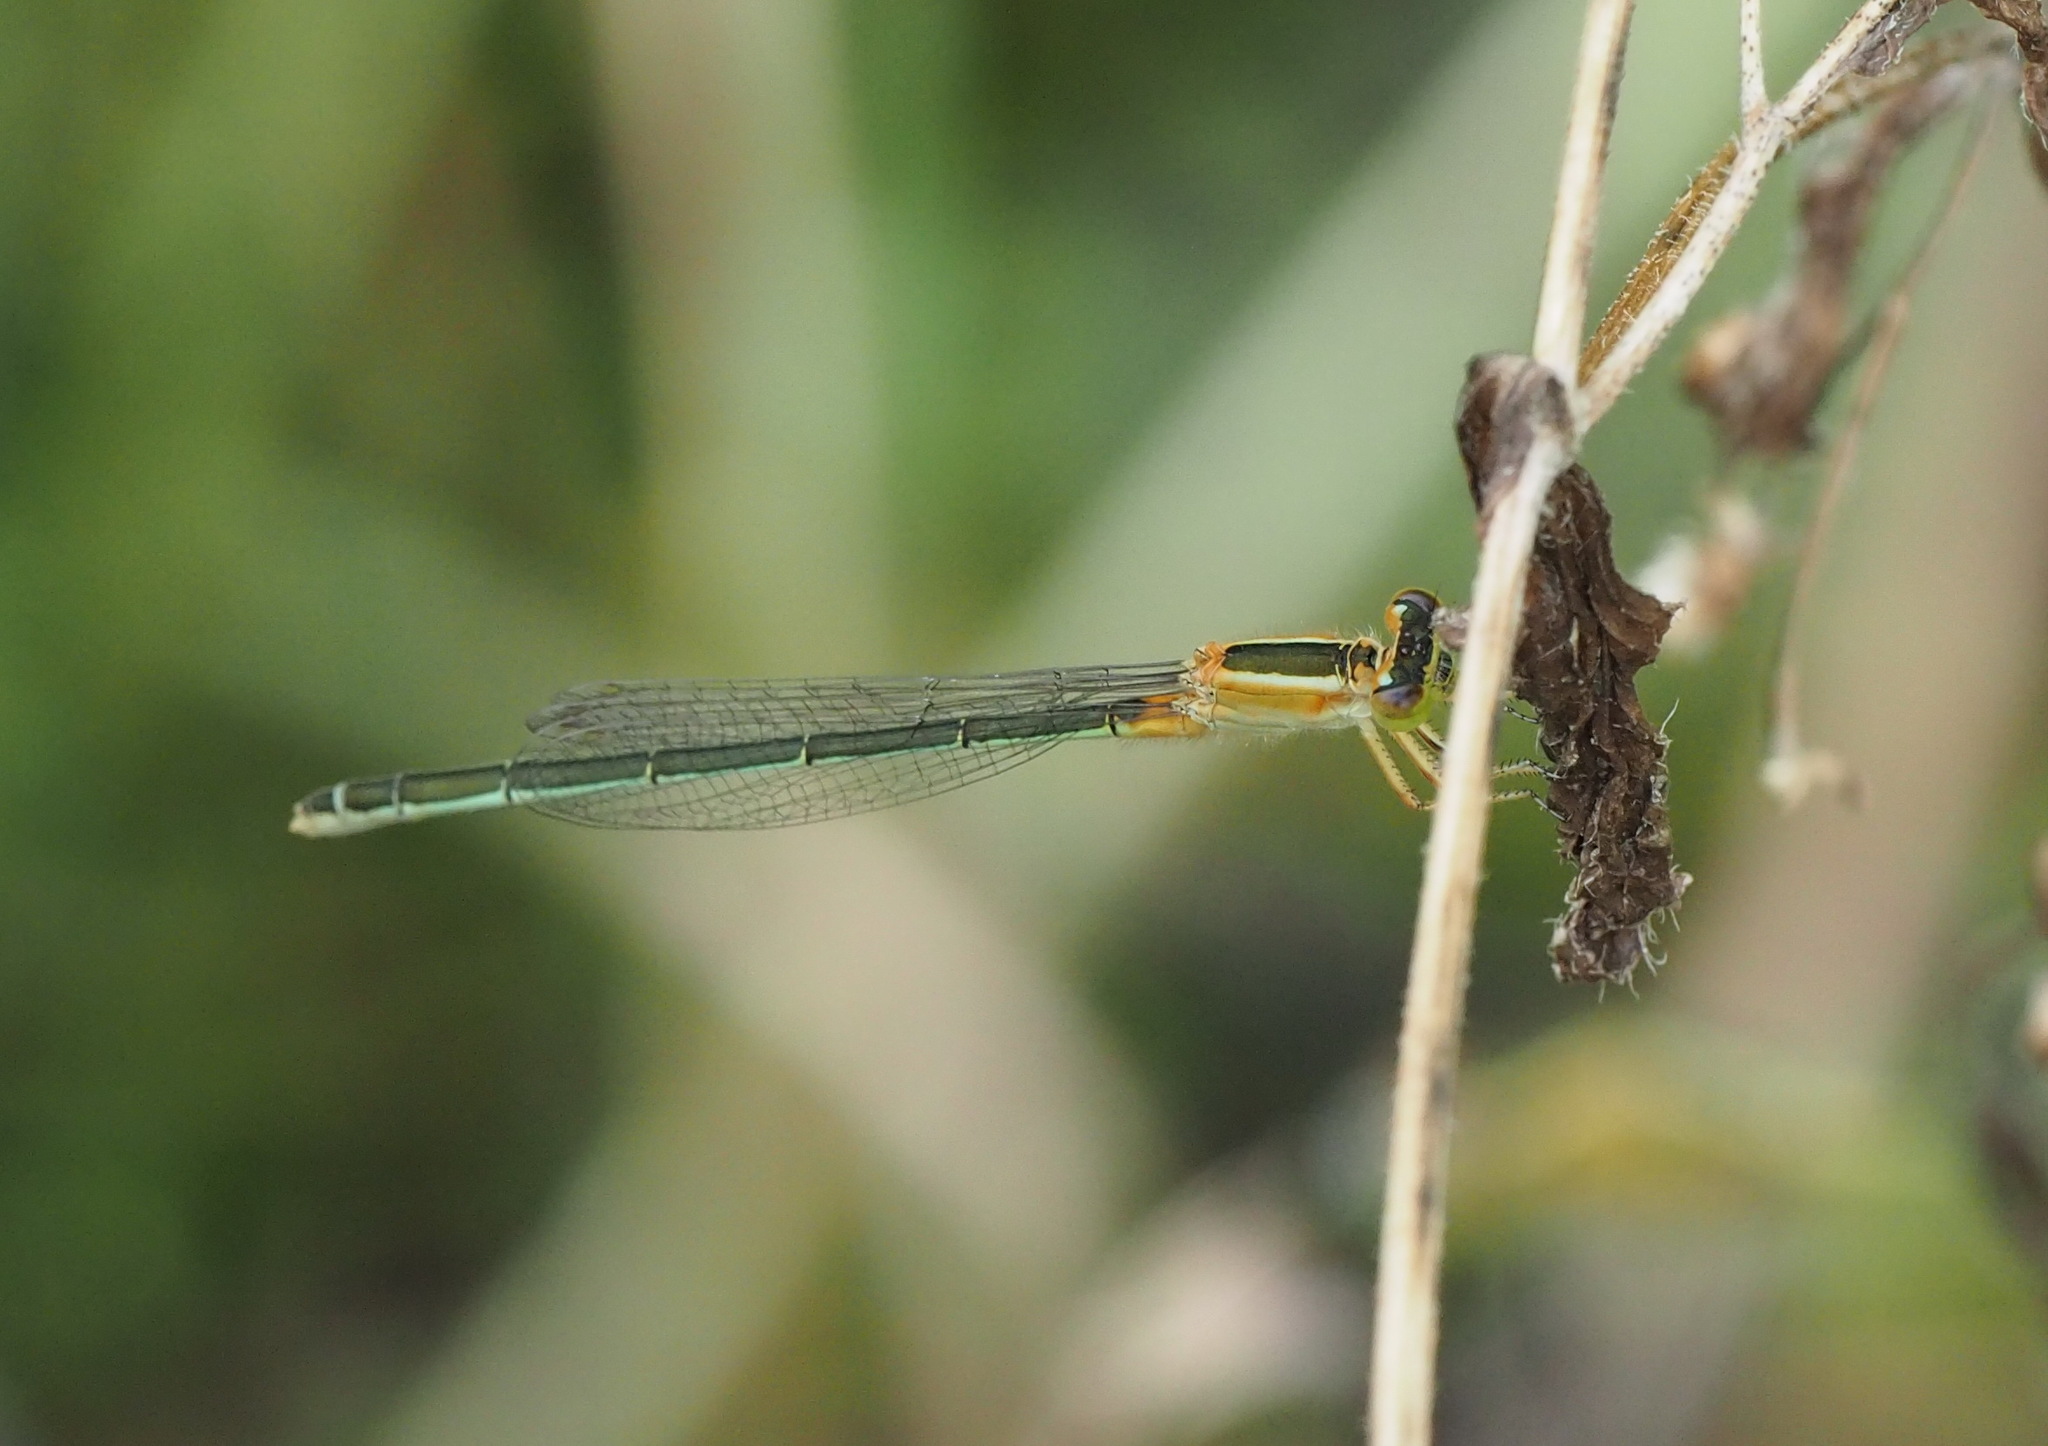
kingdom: Animalia
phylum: Arthropoda
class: Insecta
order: Odonata
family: Coenagrionidae
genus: Ischnura
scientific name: Ischnura senegalensis
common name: Tropical bluetail
